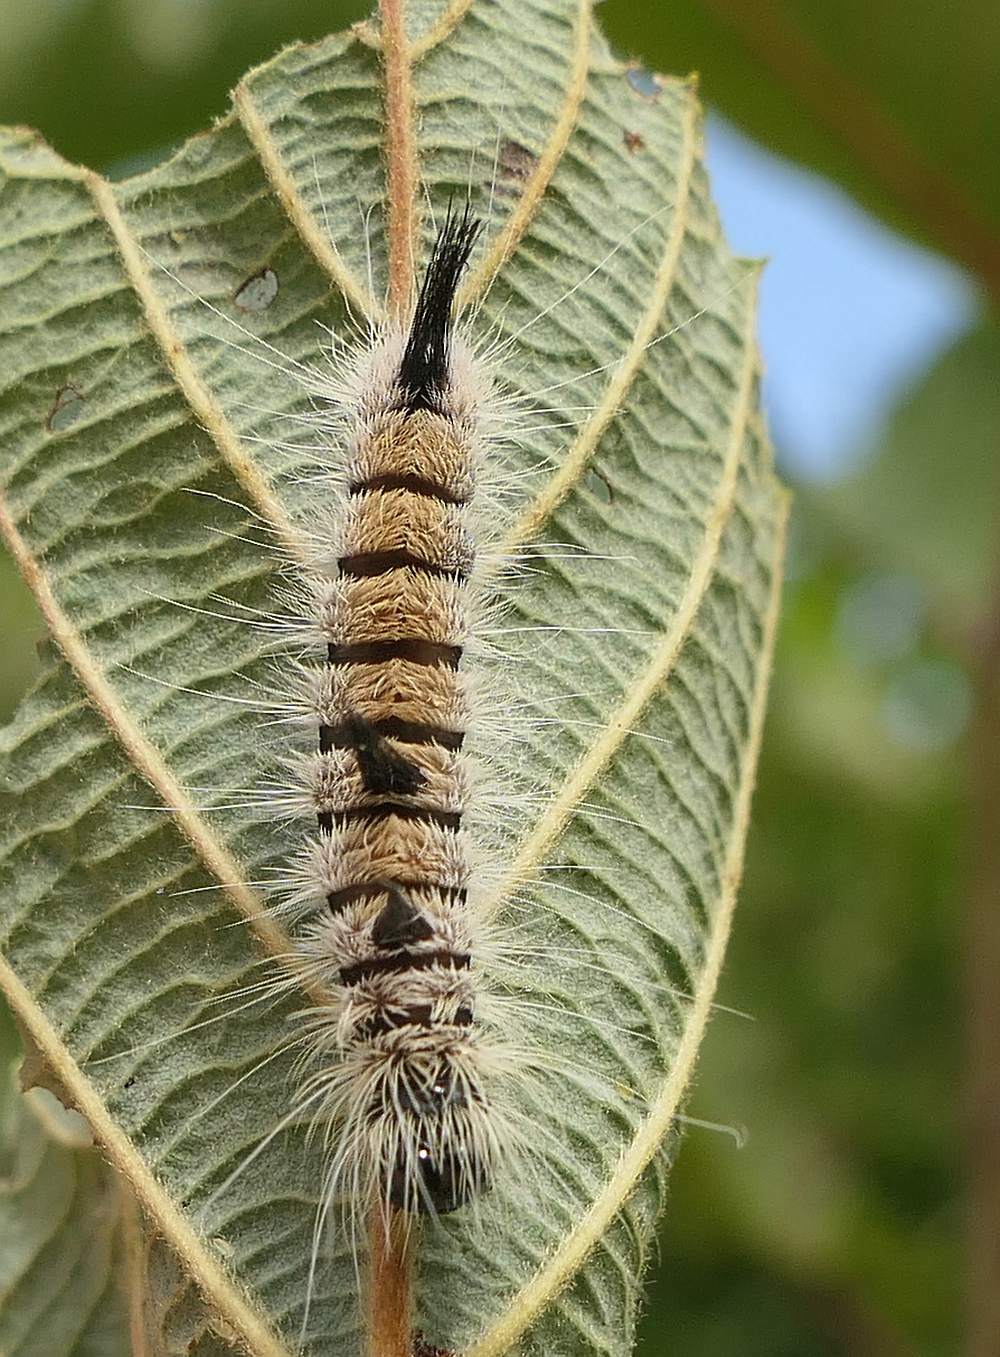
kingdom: Animalia
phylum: Arthropoda
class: Insecta
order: Lepidoptera
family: Noctuidae
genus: Acronicta
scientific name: Acronicta insita
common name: Large gray dagger
